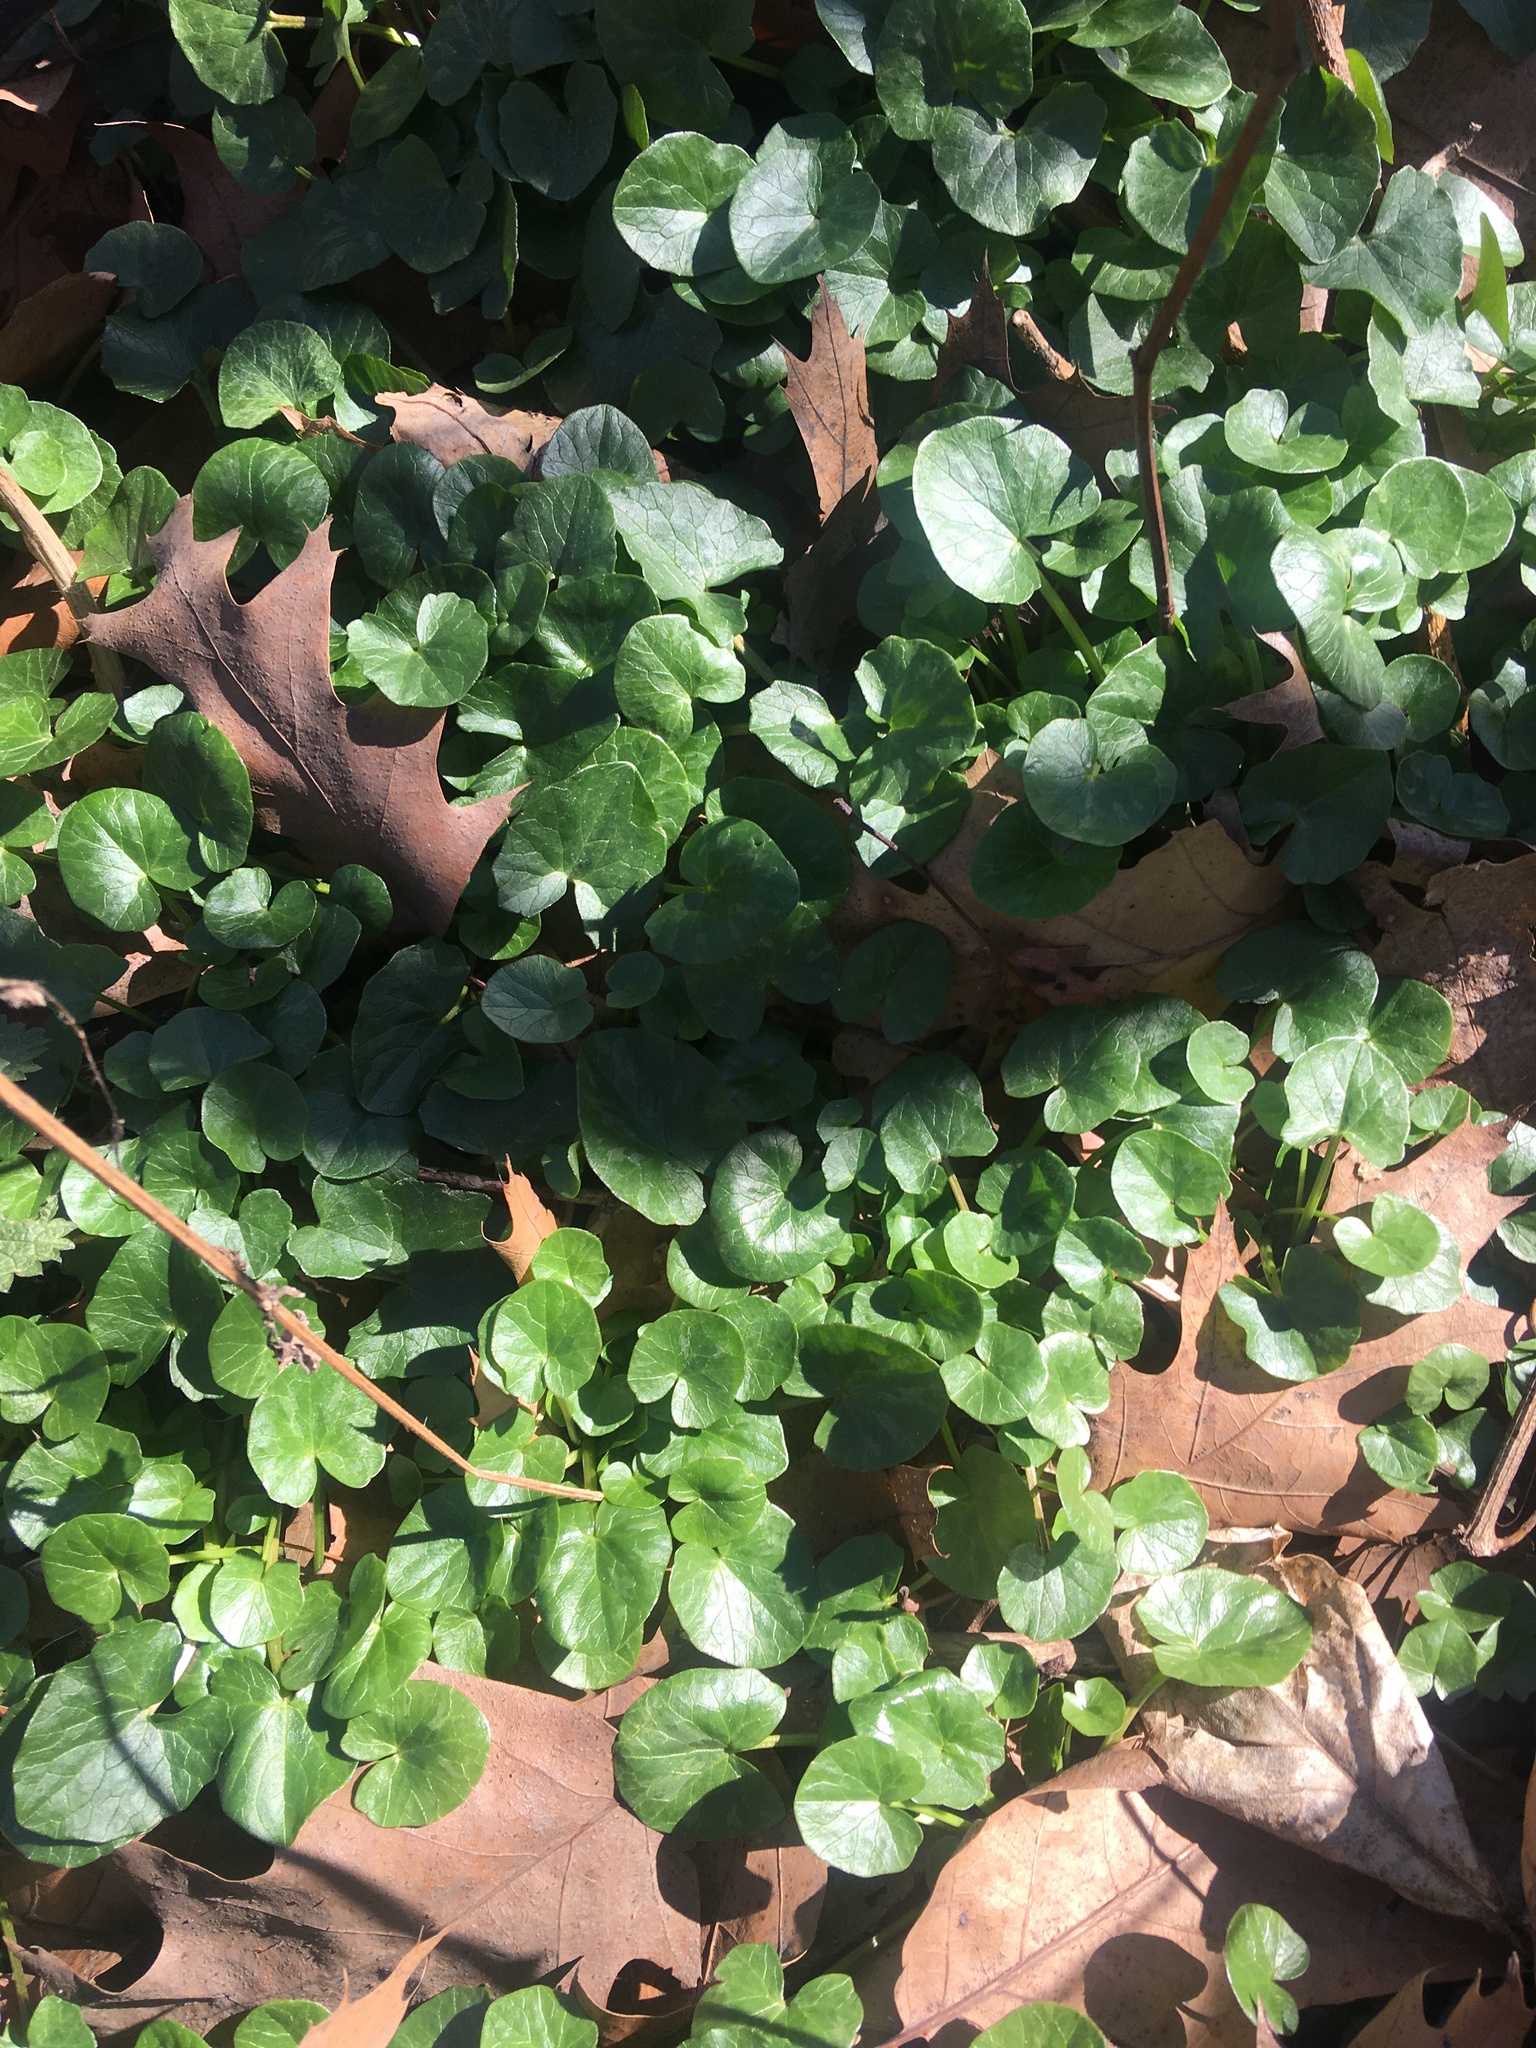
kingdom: Plantae
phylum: Tracheophyta
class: Magnoliopsida
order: Ranunculales
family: Ranunculaceae
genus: Ficaria
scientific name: Ficaria verna
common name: Lesser celandine
